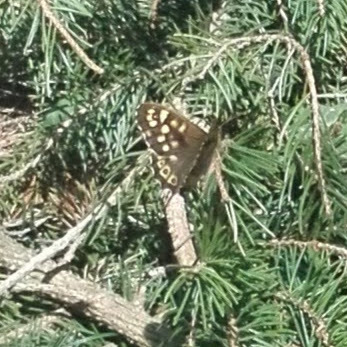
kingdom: Animalia
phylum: Arthropoda
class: Insecta
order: Lepidoptera
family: Nymphalidae
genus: Pararge
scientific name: Pararge aegeria
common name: Speckled wood
